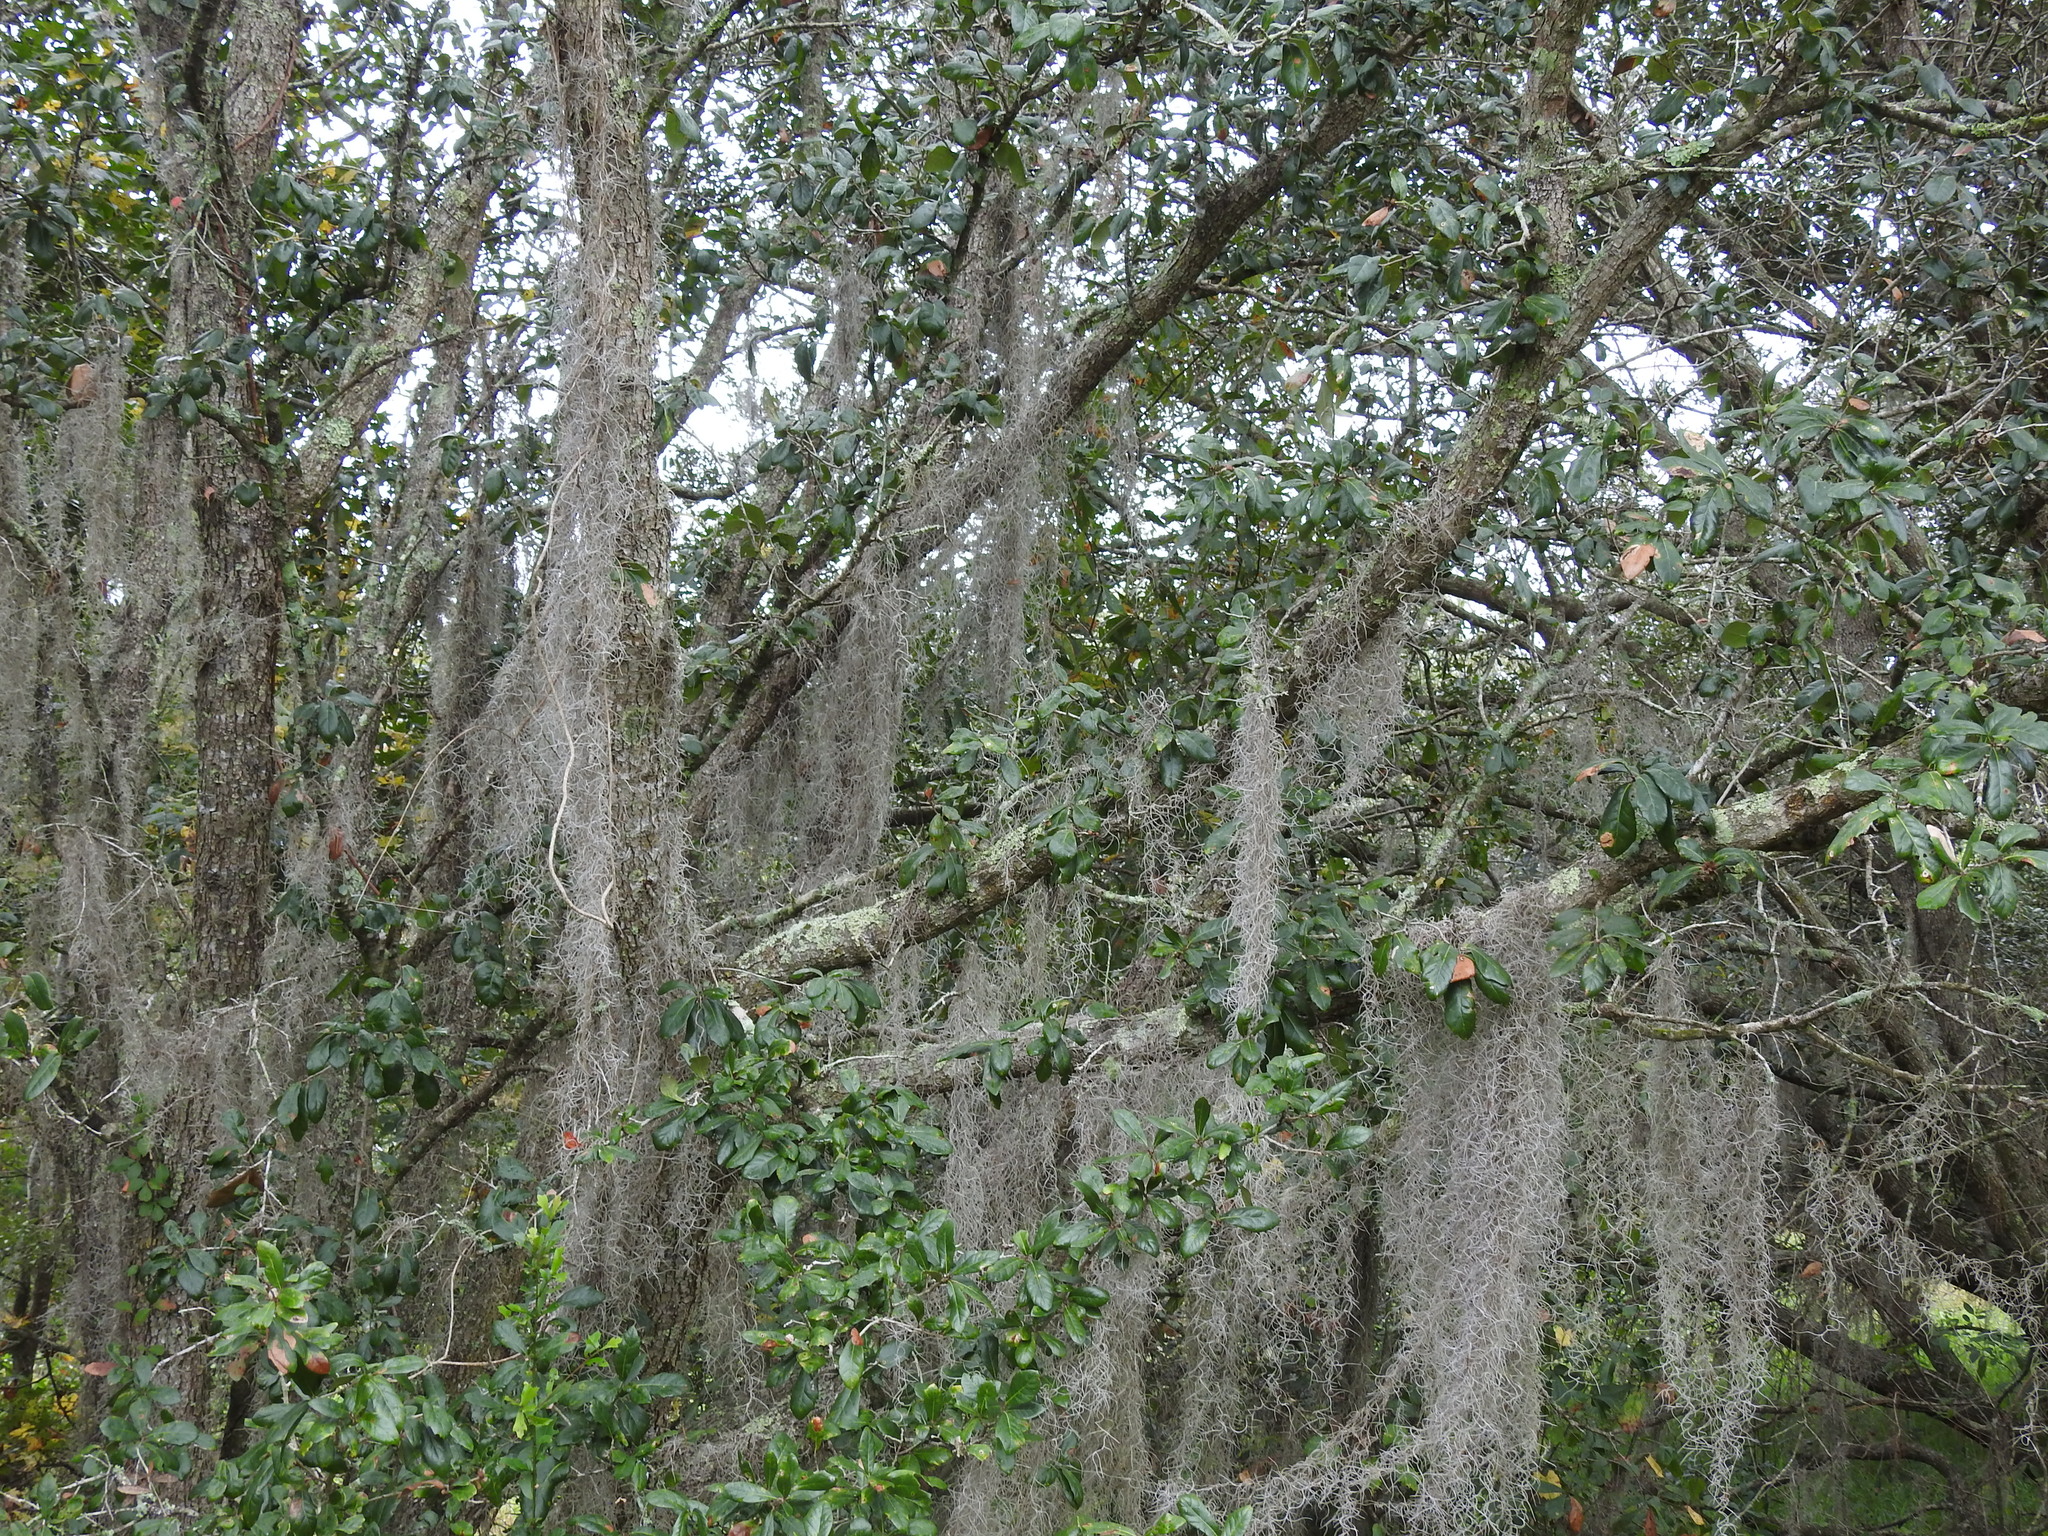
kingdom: Plantae
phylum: Tracheophyta
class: Liliopsida
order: Poales
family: Bromeliaceae
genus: Tillandsia
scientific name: Tillandsia usneoides
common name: Spanish moss
